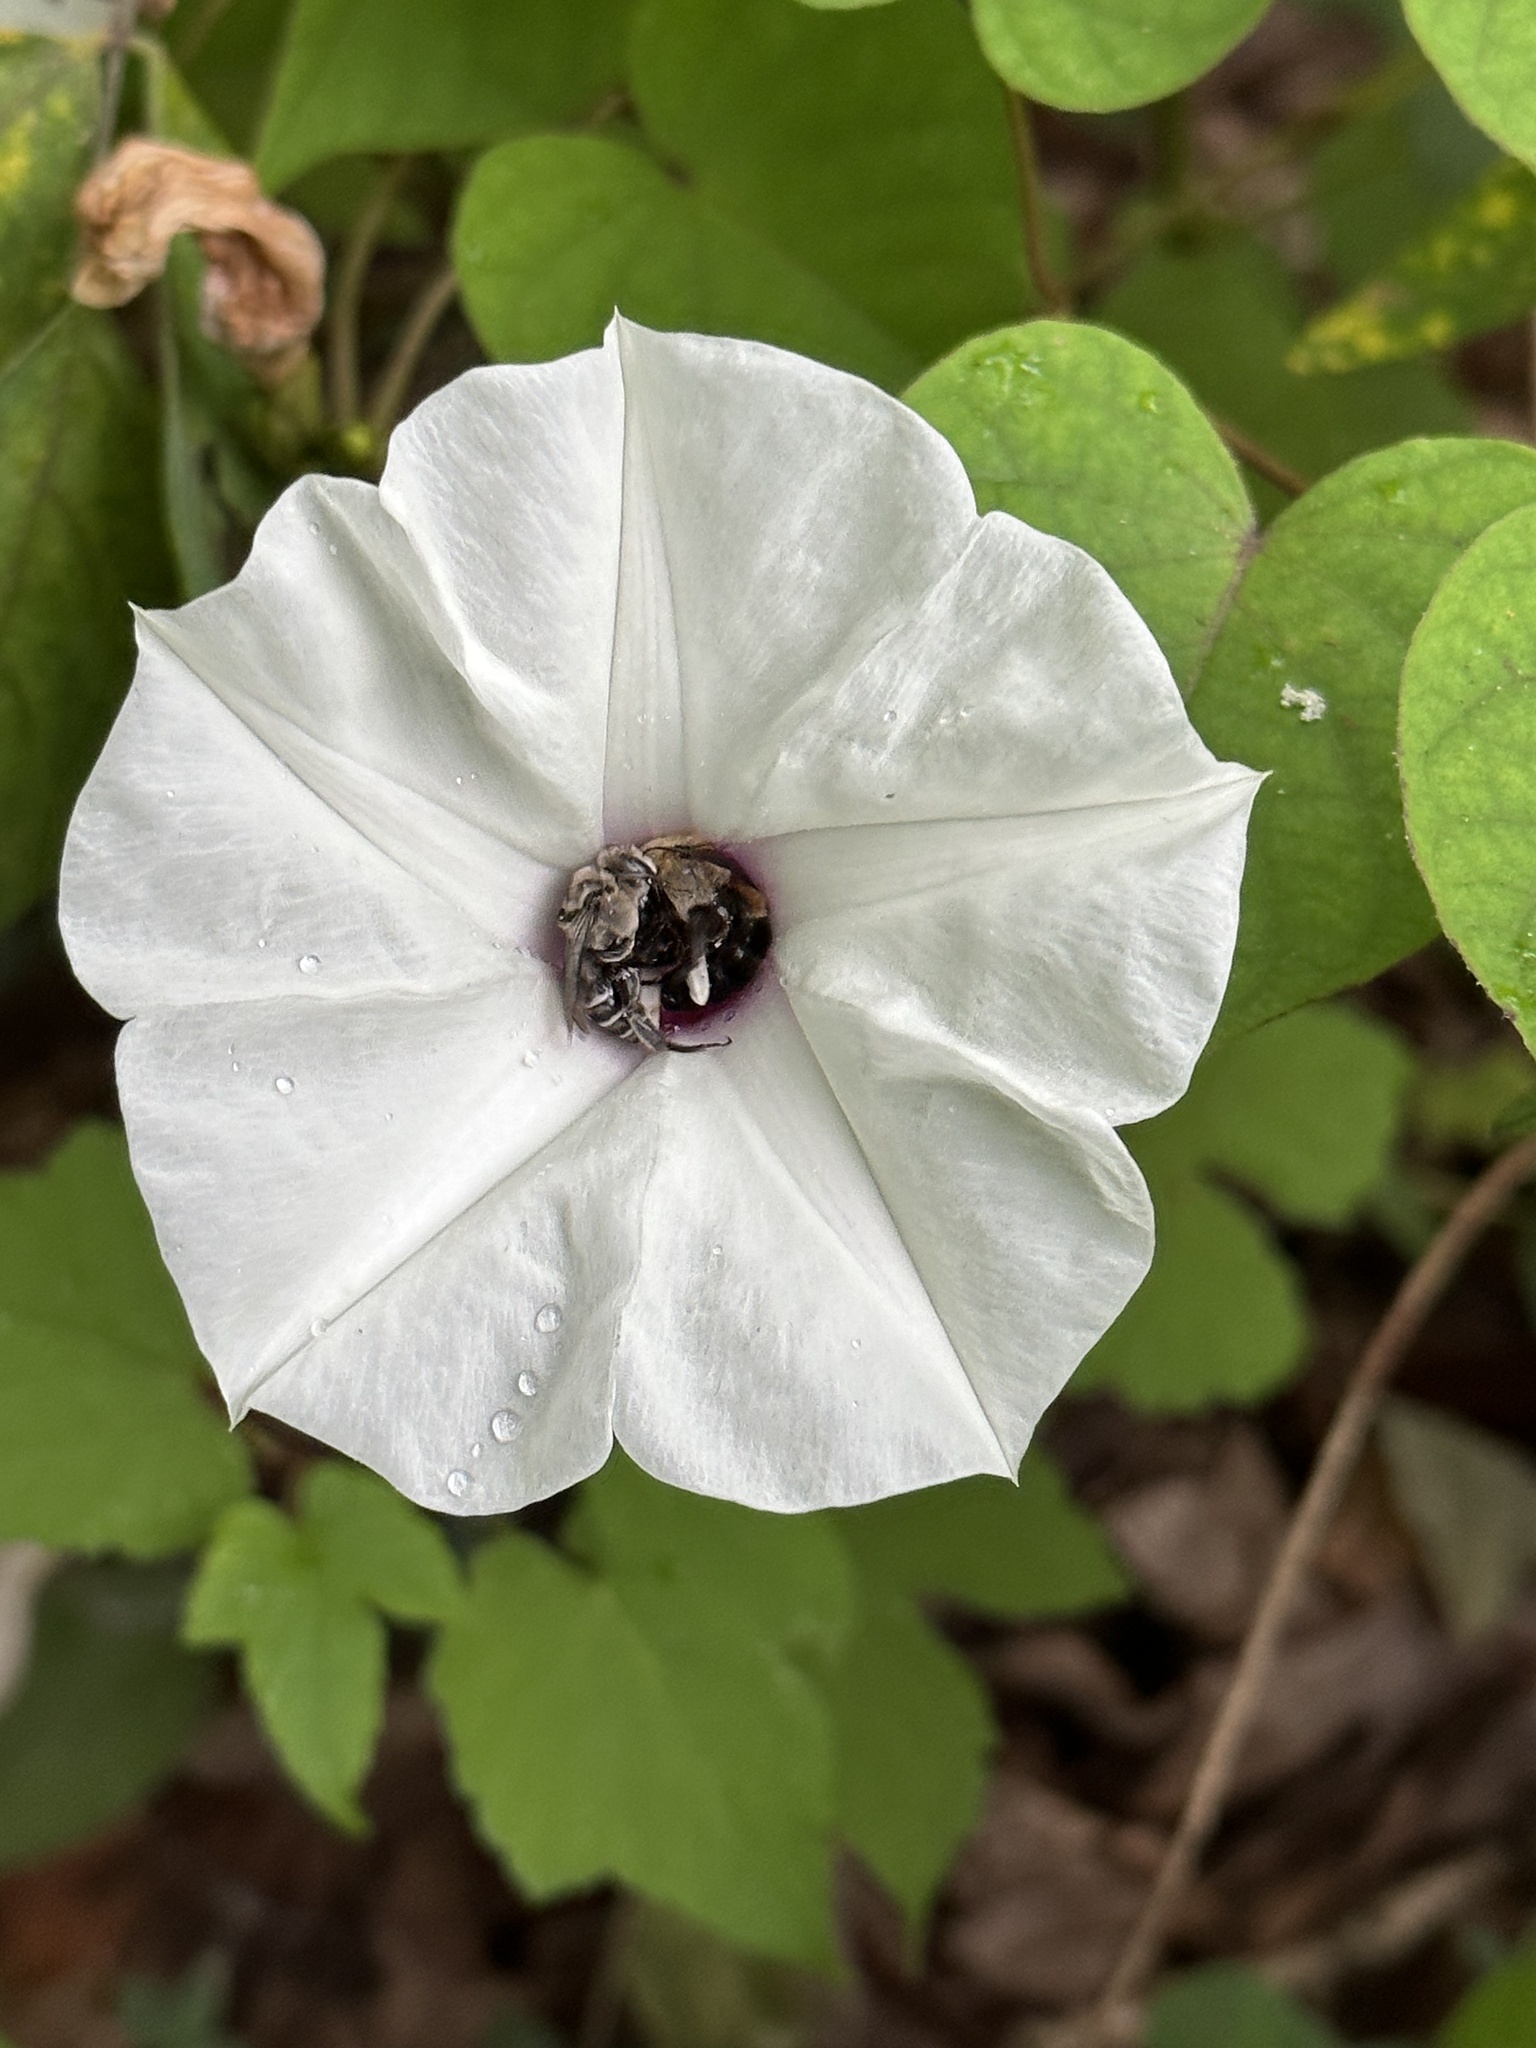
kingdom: Animalia
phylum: Arthropoda
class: Insecta
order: Hymenoptera
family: Apidae
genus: Melitoma
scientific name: Melitoma taurea
